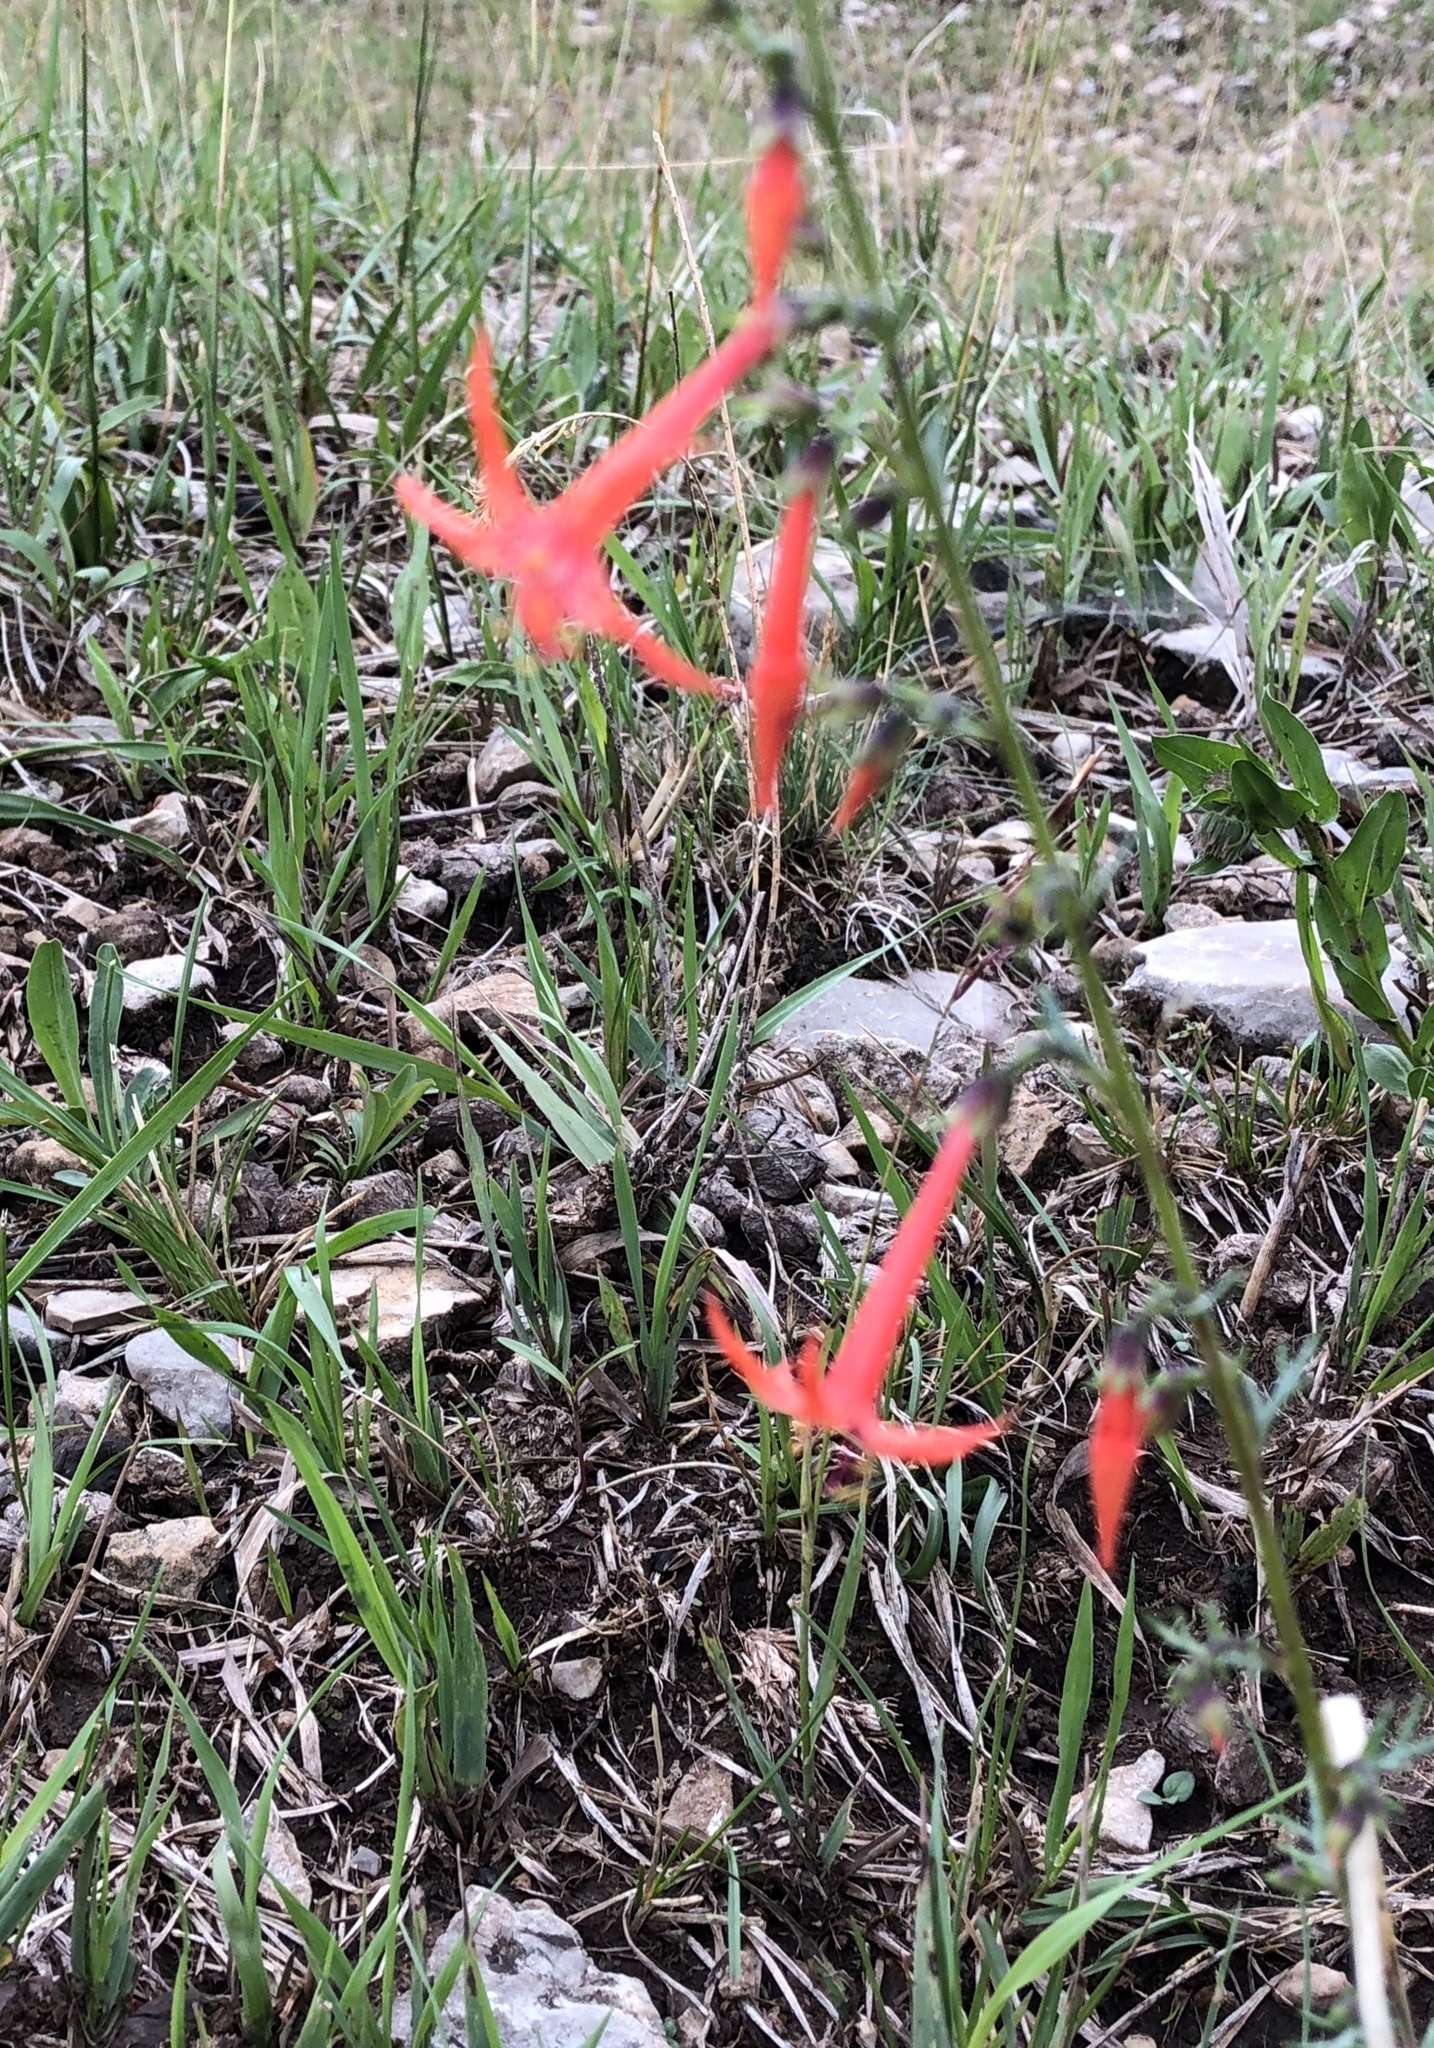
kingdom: Plantae
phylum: Tracheophyta
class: Magnoliopsida
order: Ericales
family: Polemoniaceae
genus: Ipomopsis
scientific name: Ipomopsis aggregata
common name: Scarlet gilia
